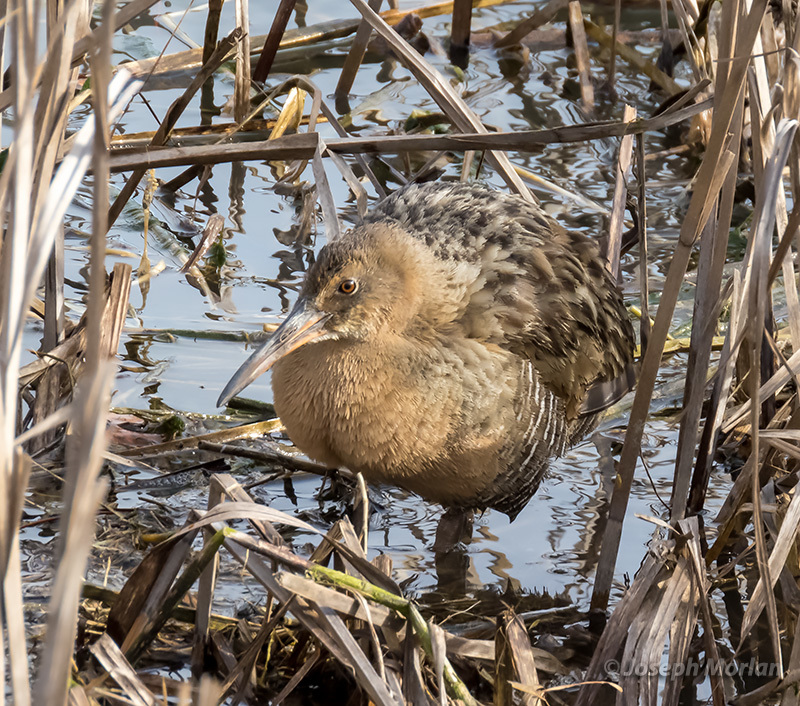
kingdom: Animalia
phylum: Chordata
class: Aves
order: Gruiformes
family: Rallidae
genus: Rallus
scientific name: Rallus obsoletus
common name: Ridgway's rail
